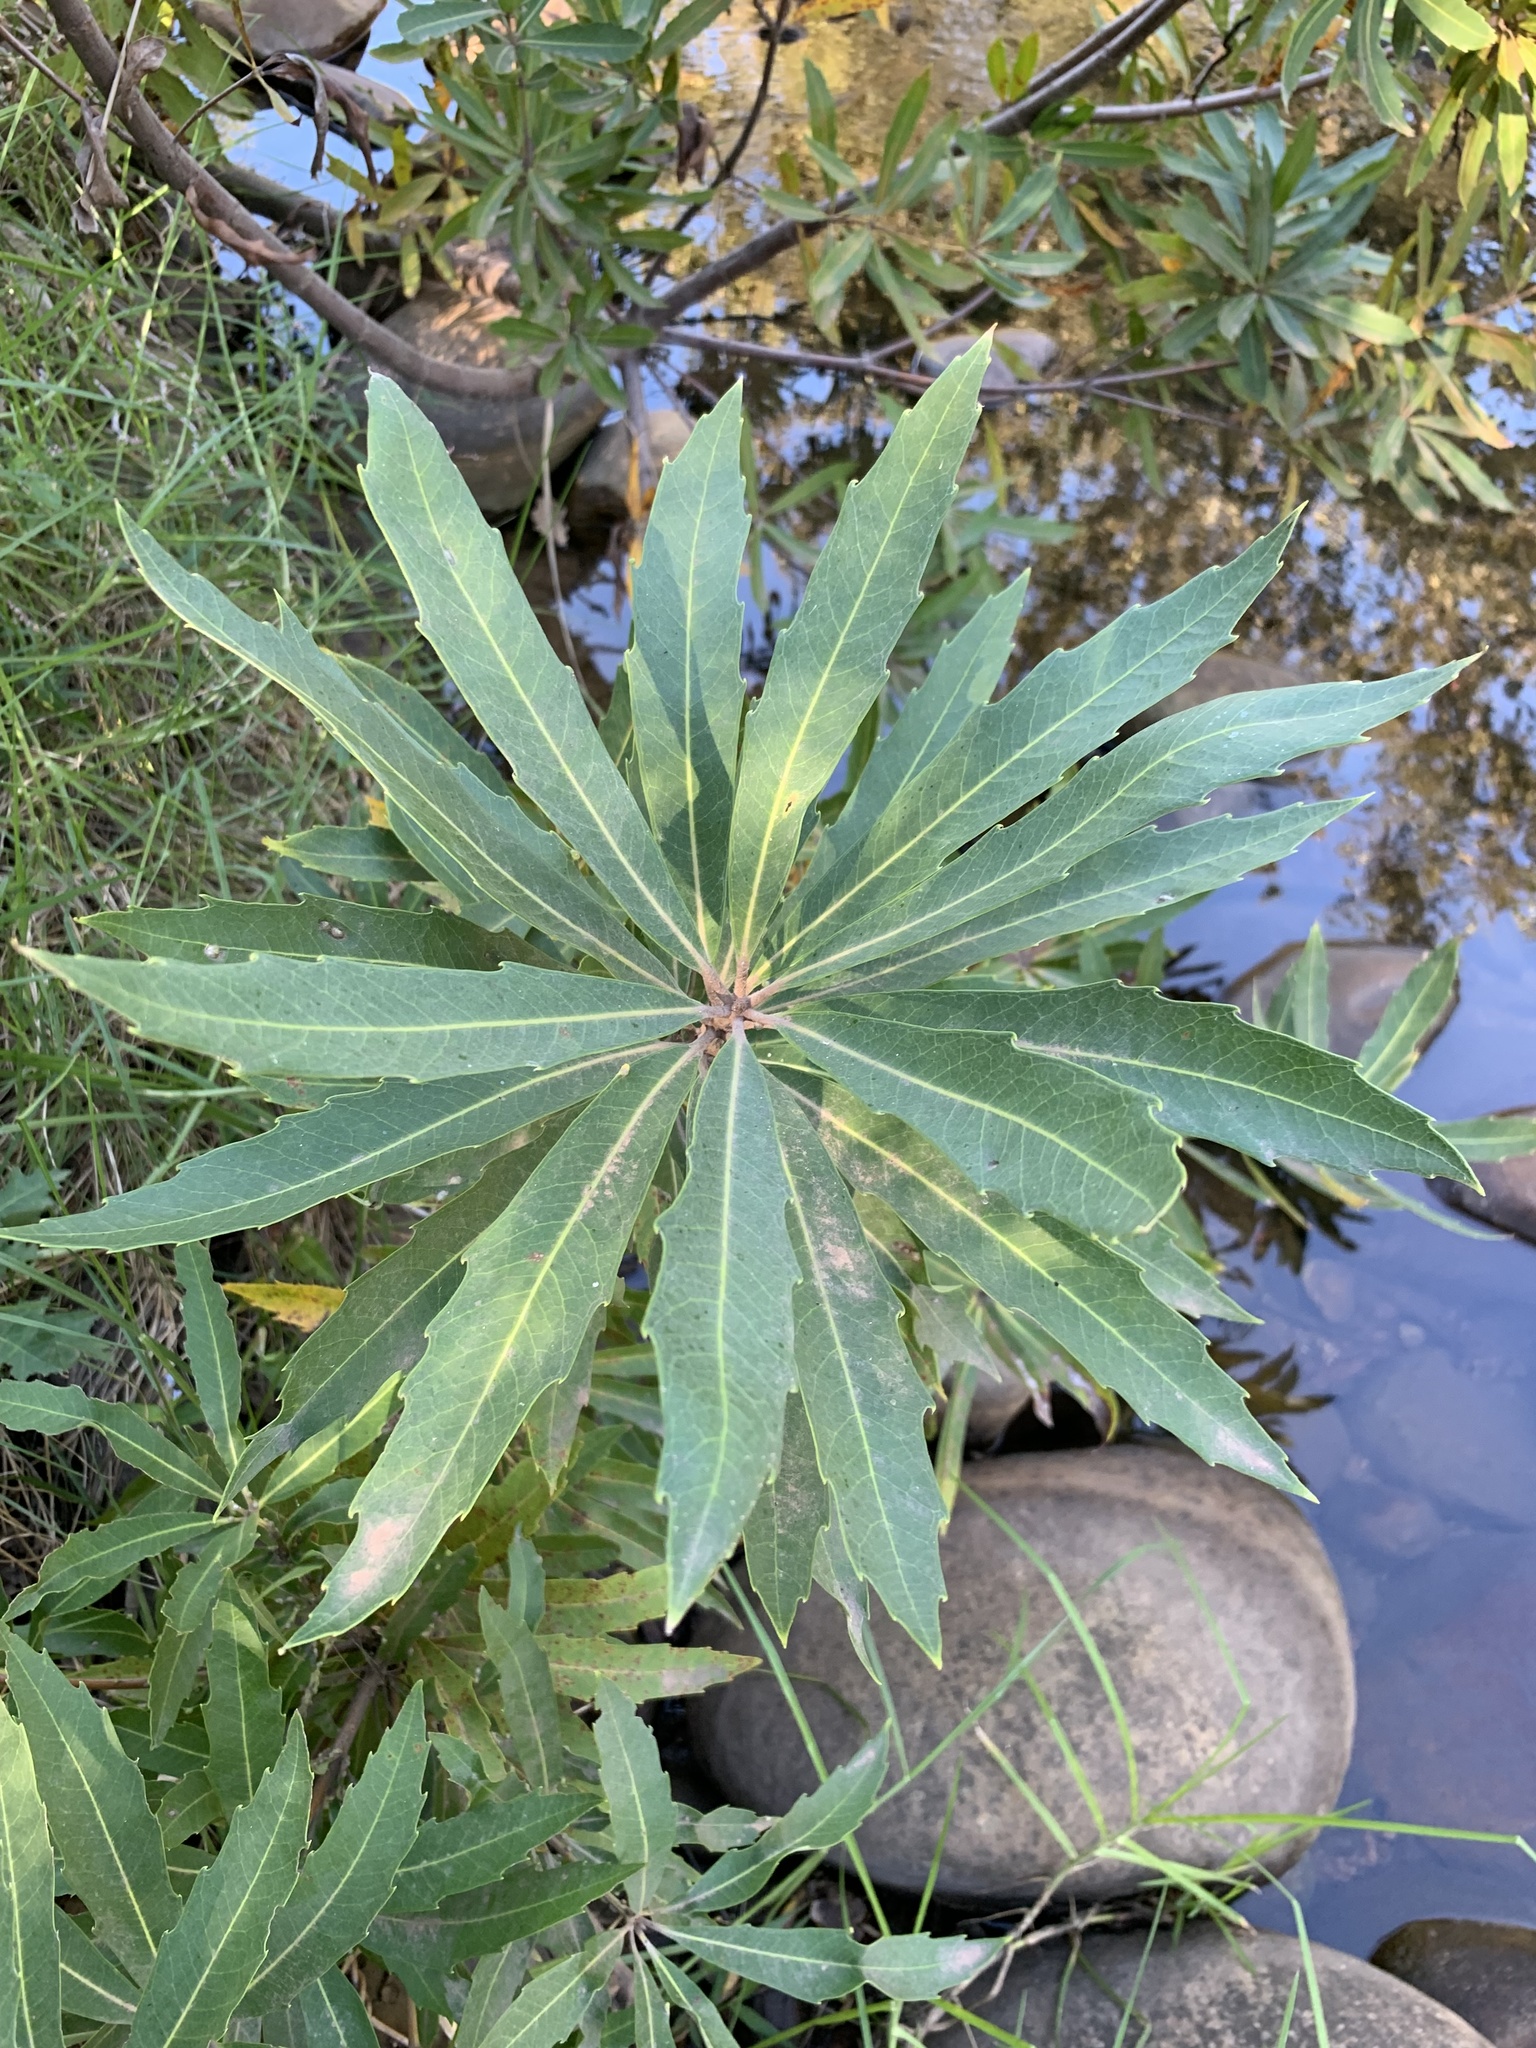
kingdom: Plantae
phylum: Tracheophyta
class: Magnoliopsida
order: Proteales
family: Proteaceae
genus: Brabejum
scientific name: Brabejum stellatifolium
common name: Wild almond
